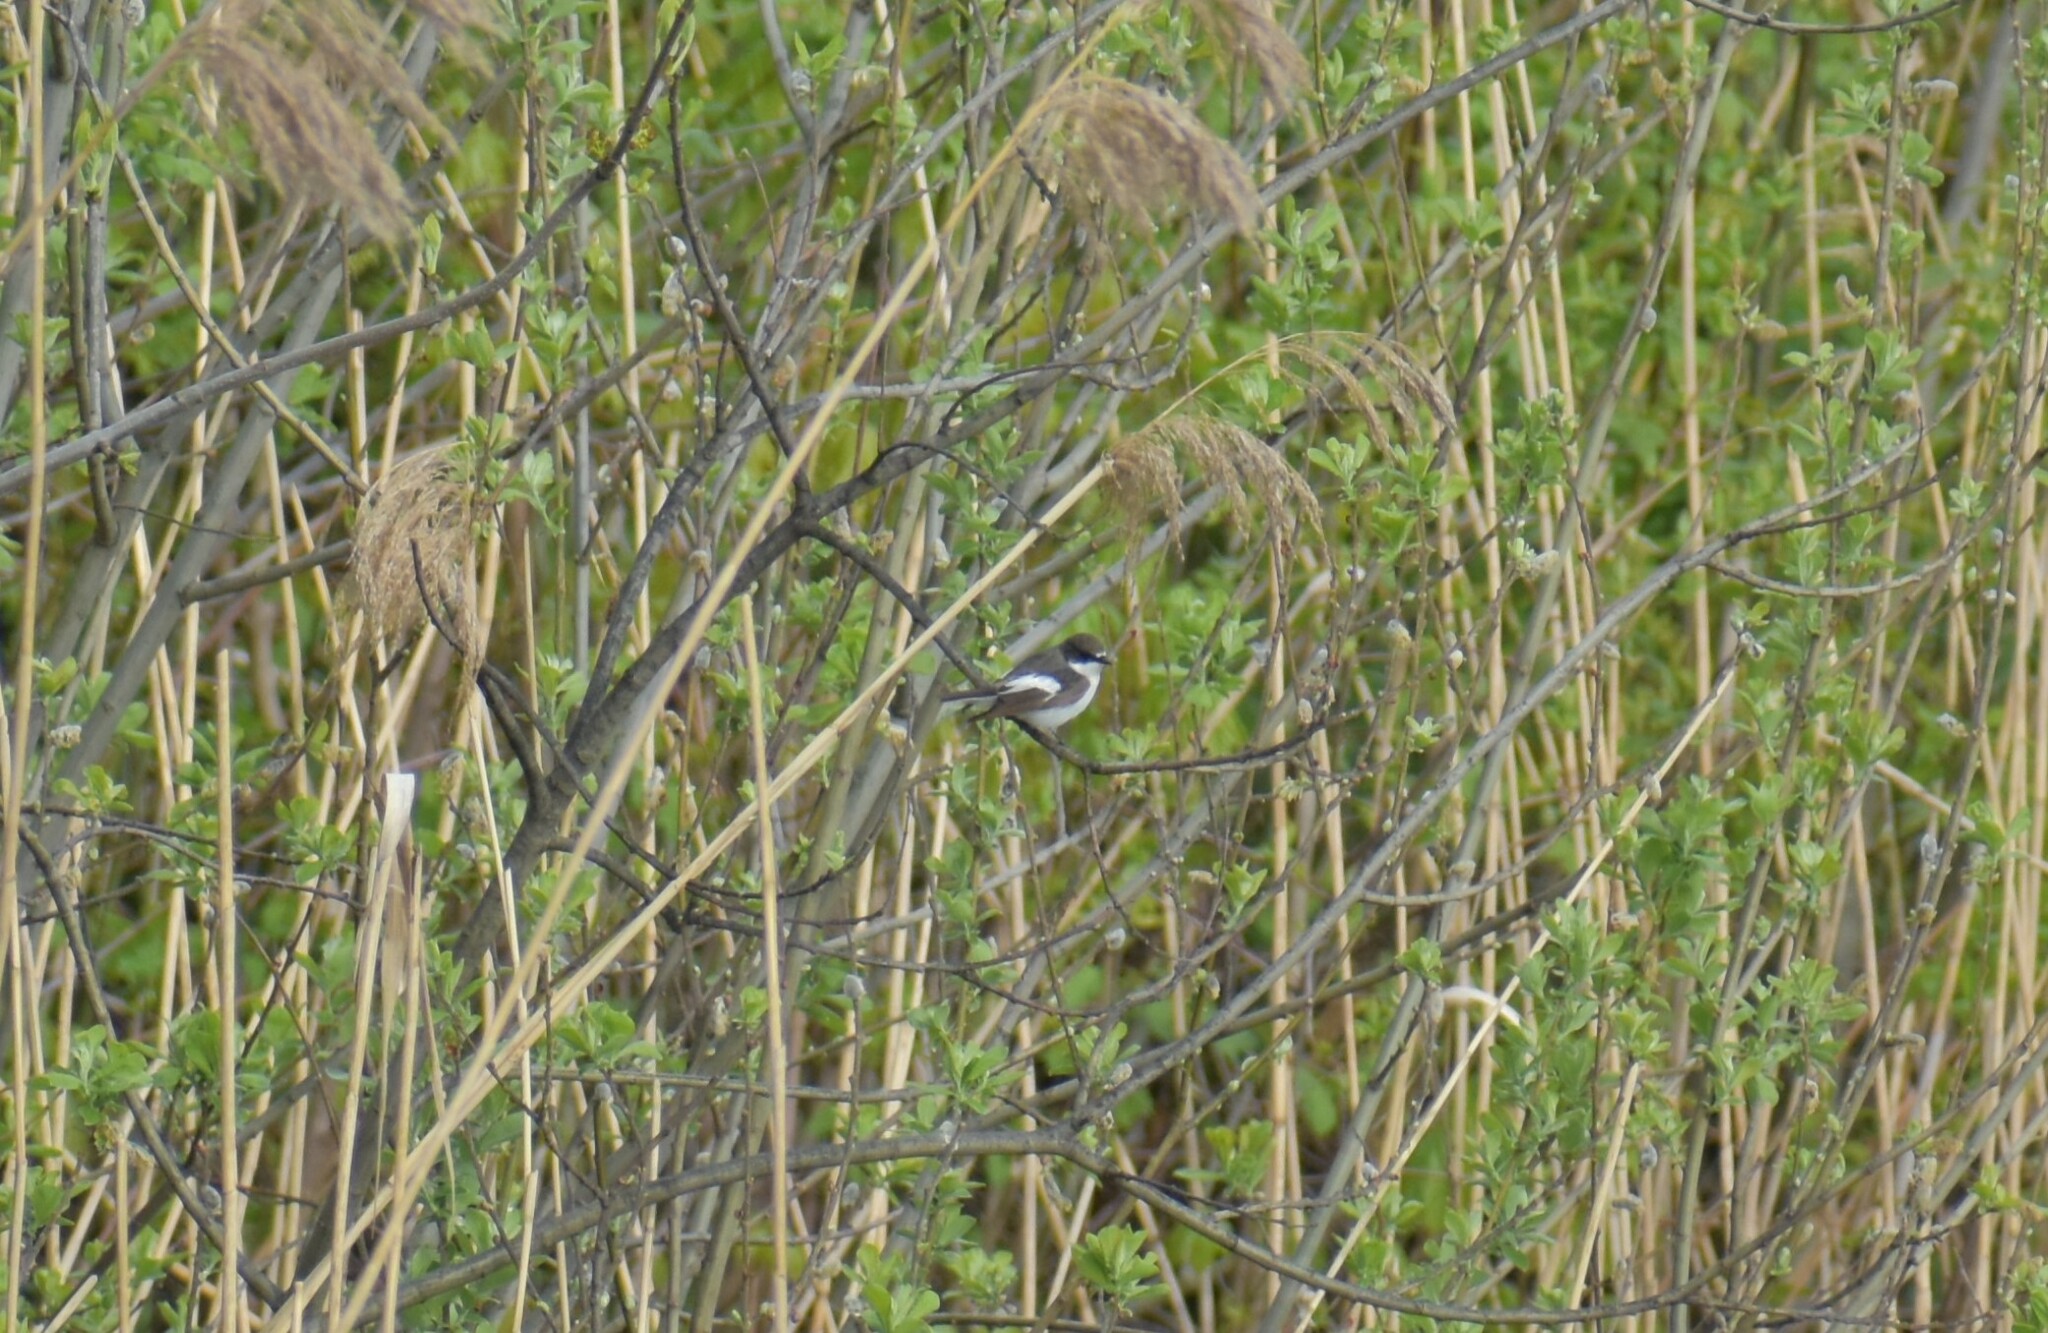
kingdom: Animalia
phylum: Chordata
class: Aves
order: Passeriformes
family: Muscicapidae
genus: Ficedula
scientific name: Ficedula hypoleuca
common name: European pied flycatcher
